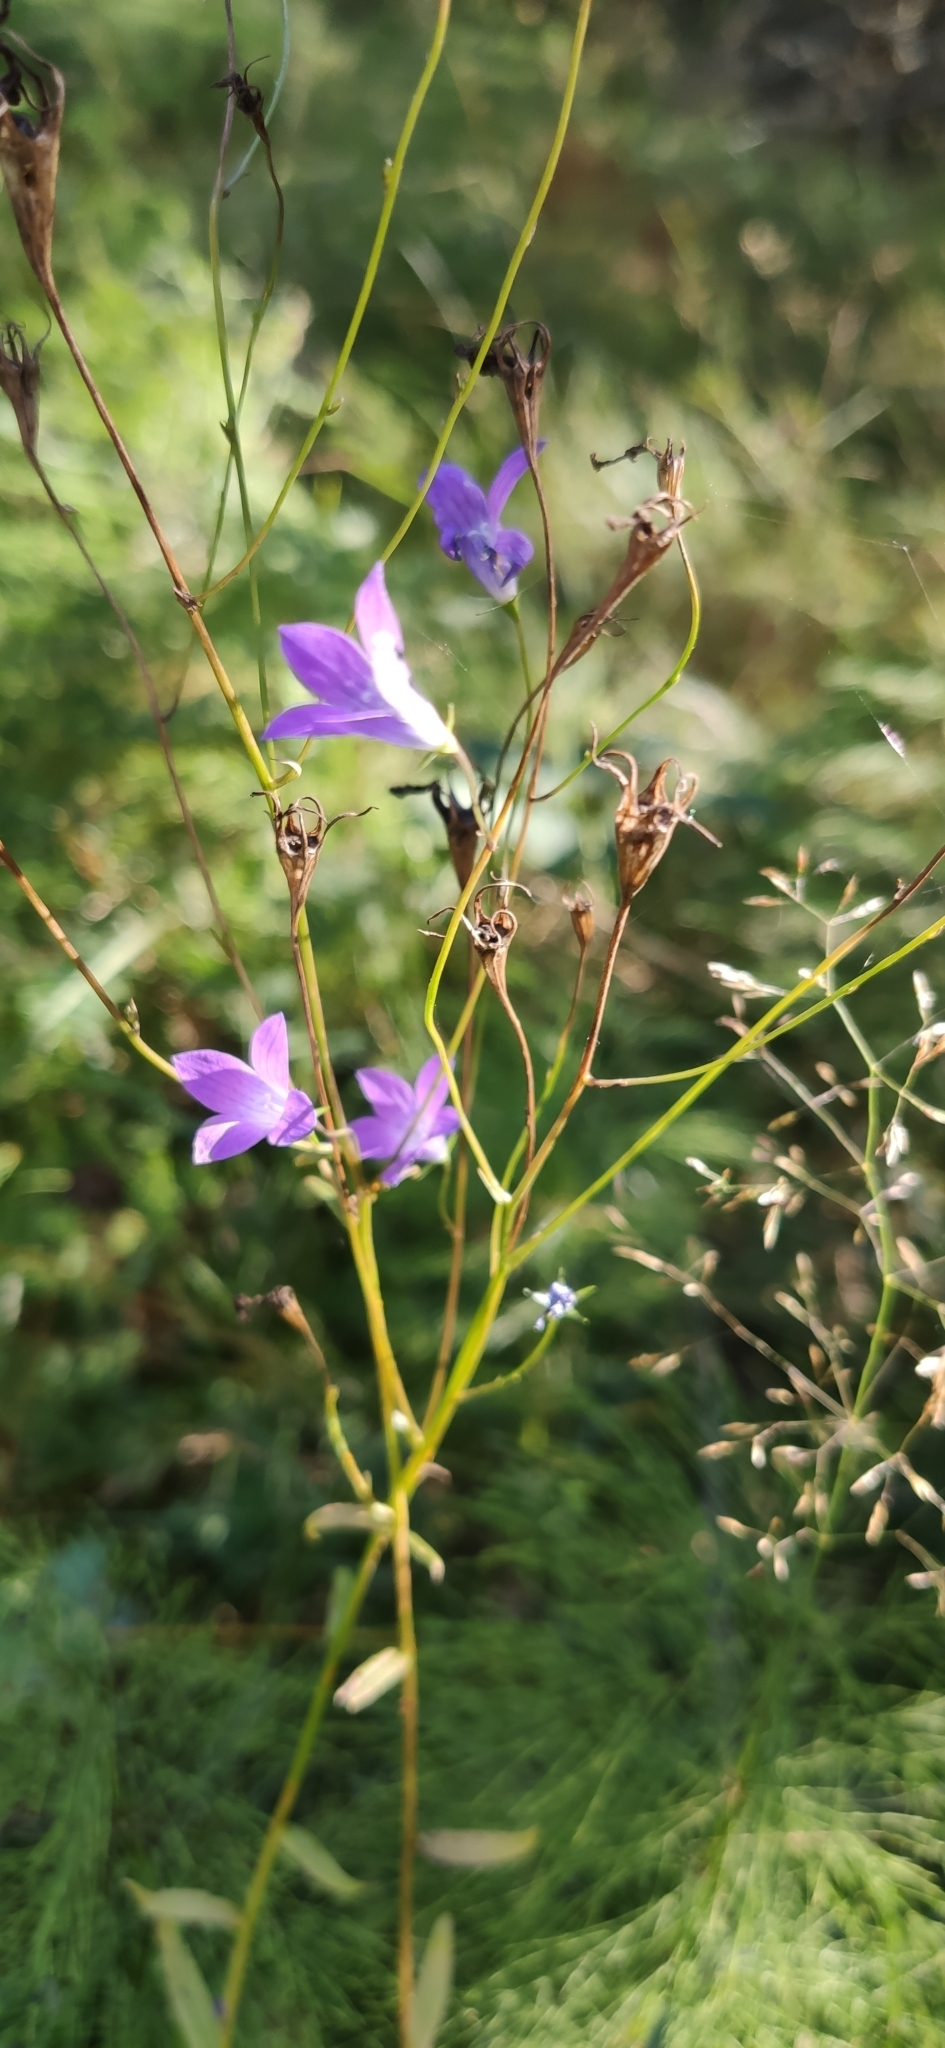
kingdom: Plantae
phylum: Tracheophyta
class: Magnoliopsida
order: Asterales
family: Campanulaceae
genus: Campanula
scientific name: Campanula patula
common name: Spreading bellflower
